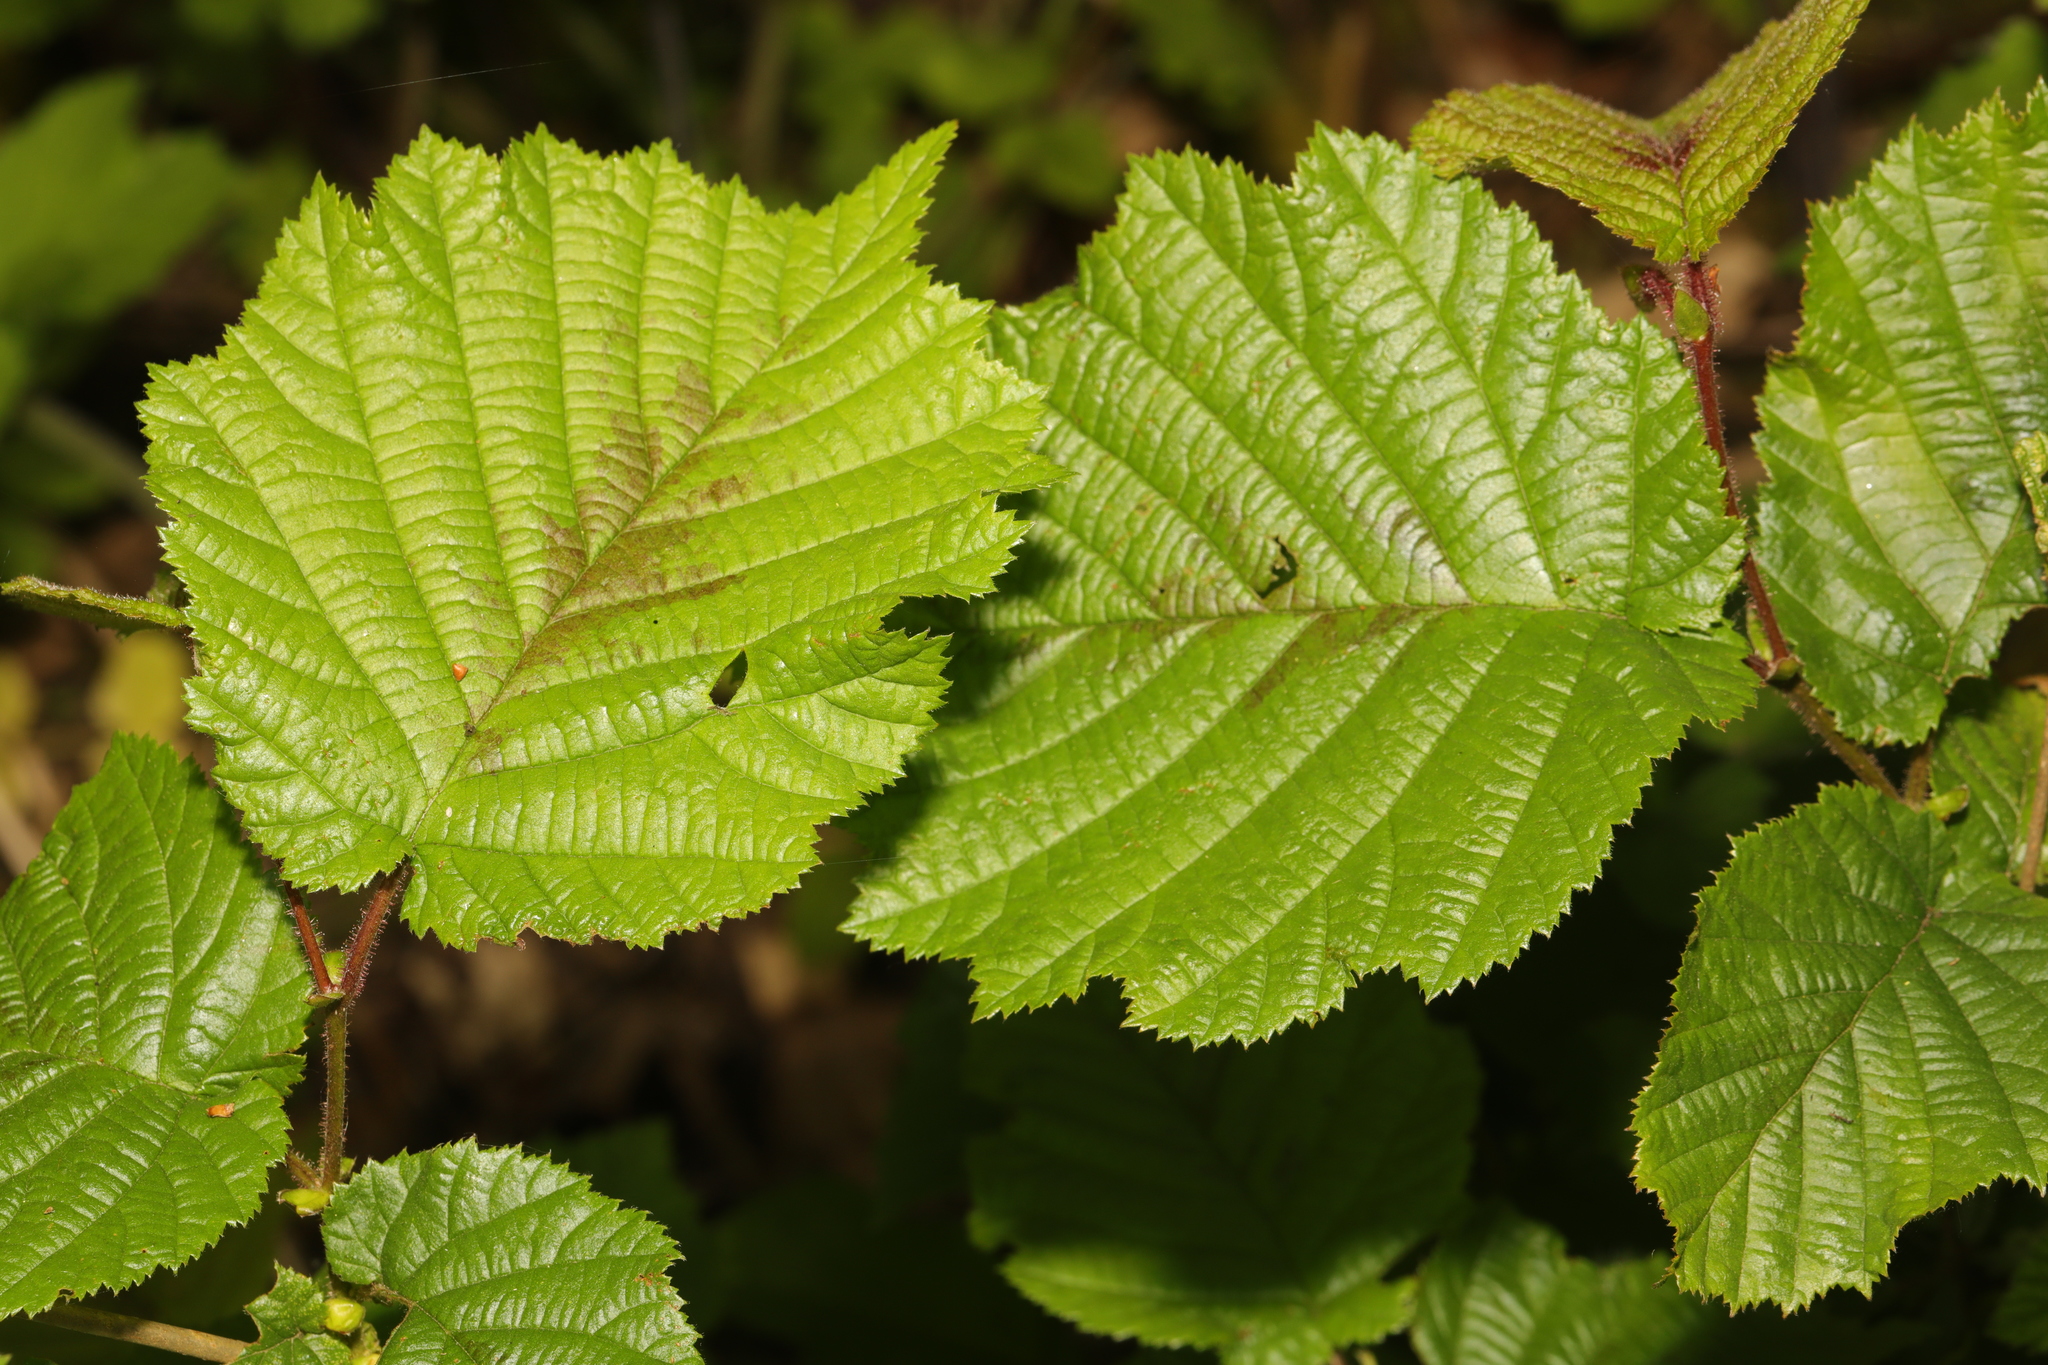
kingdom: Plantae
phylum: Tracheophyta
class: Magnoliopsida
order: Fagales
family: Betulaceae
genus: Corylus
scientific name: Corylus avellana
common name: European hazel
